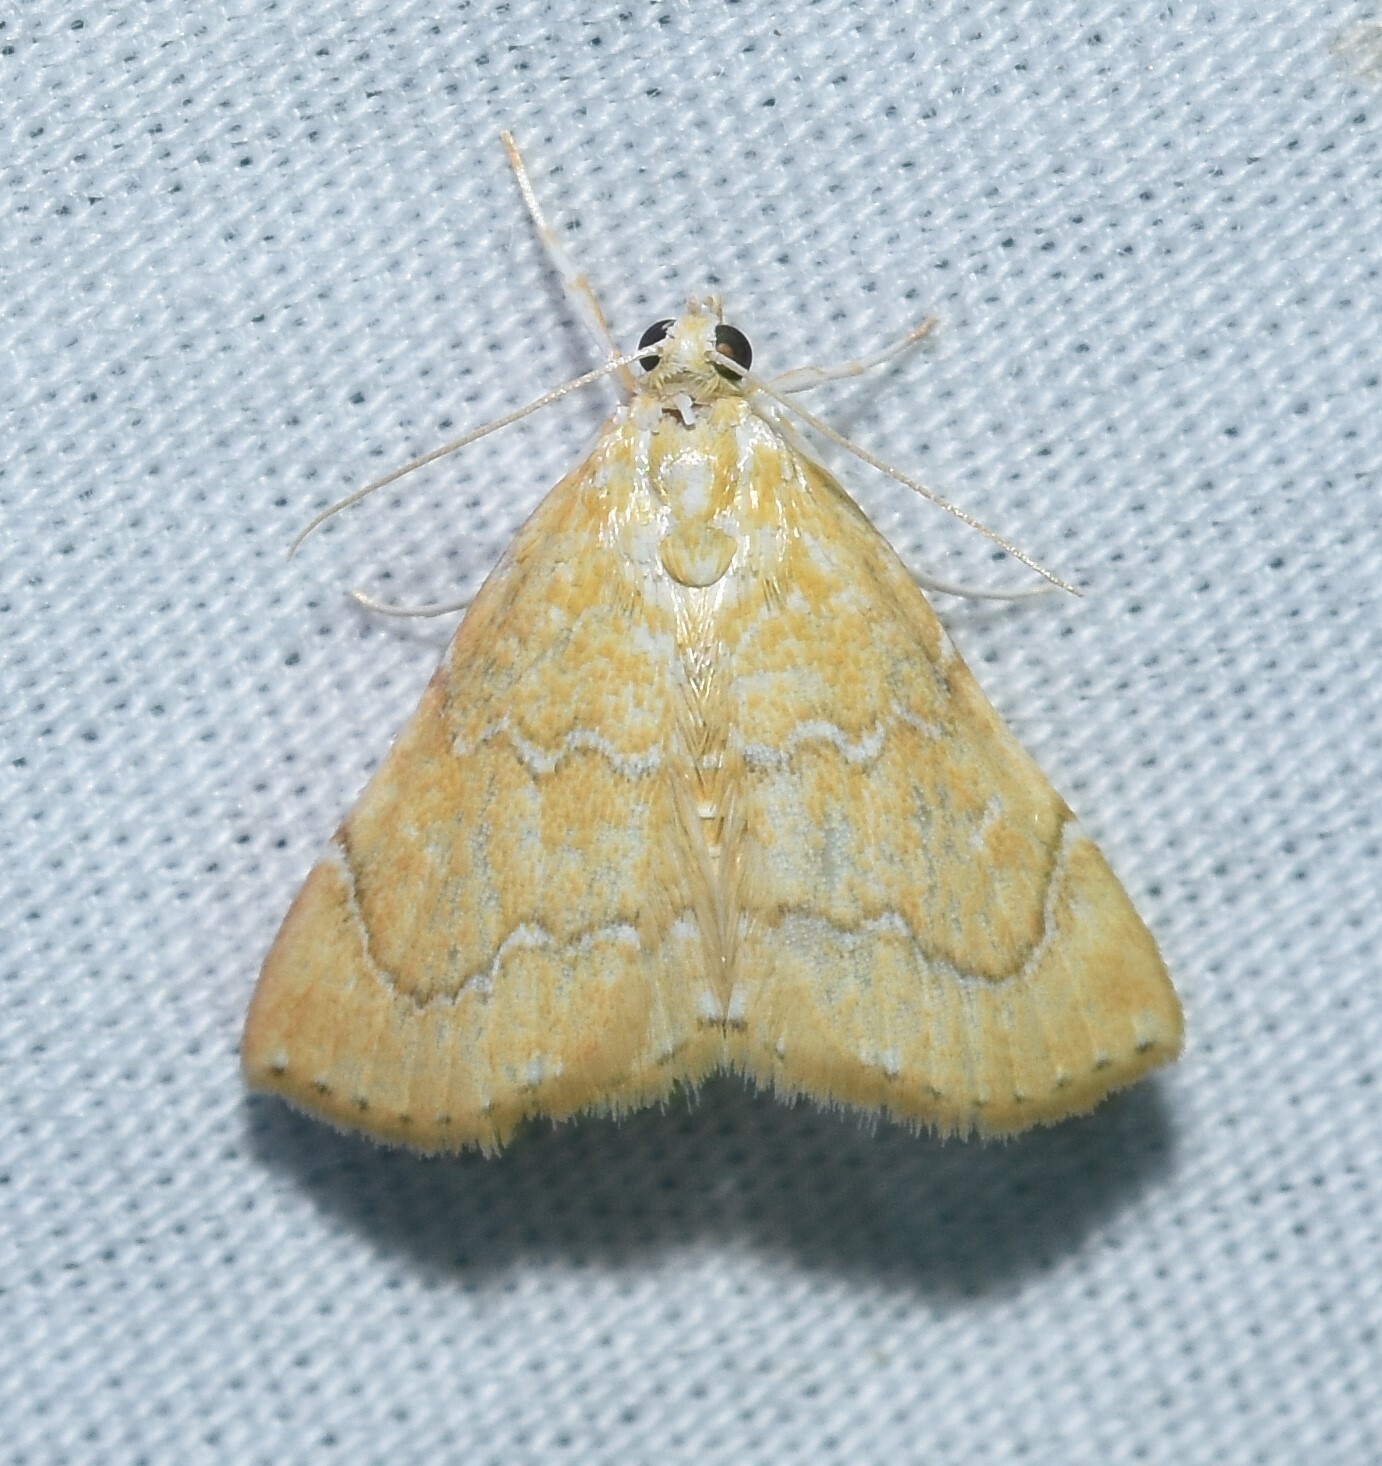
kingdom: Animalia
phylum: Arthropoda
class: Insecta
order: Lepidoptera
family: Crambidae
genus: Glaphyria
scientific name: Glaphyria sesquistrialis
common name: White-roped glaphyria
